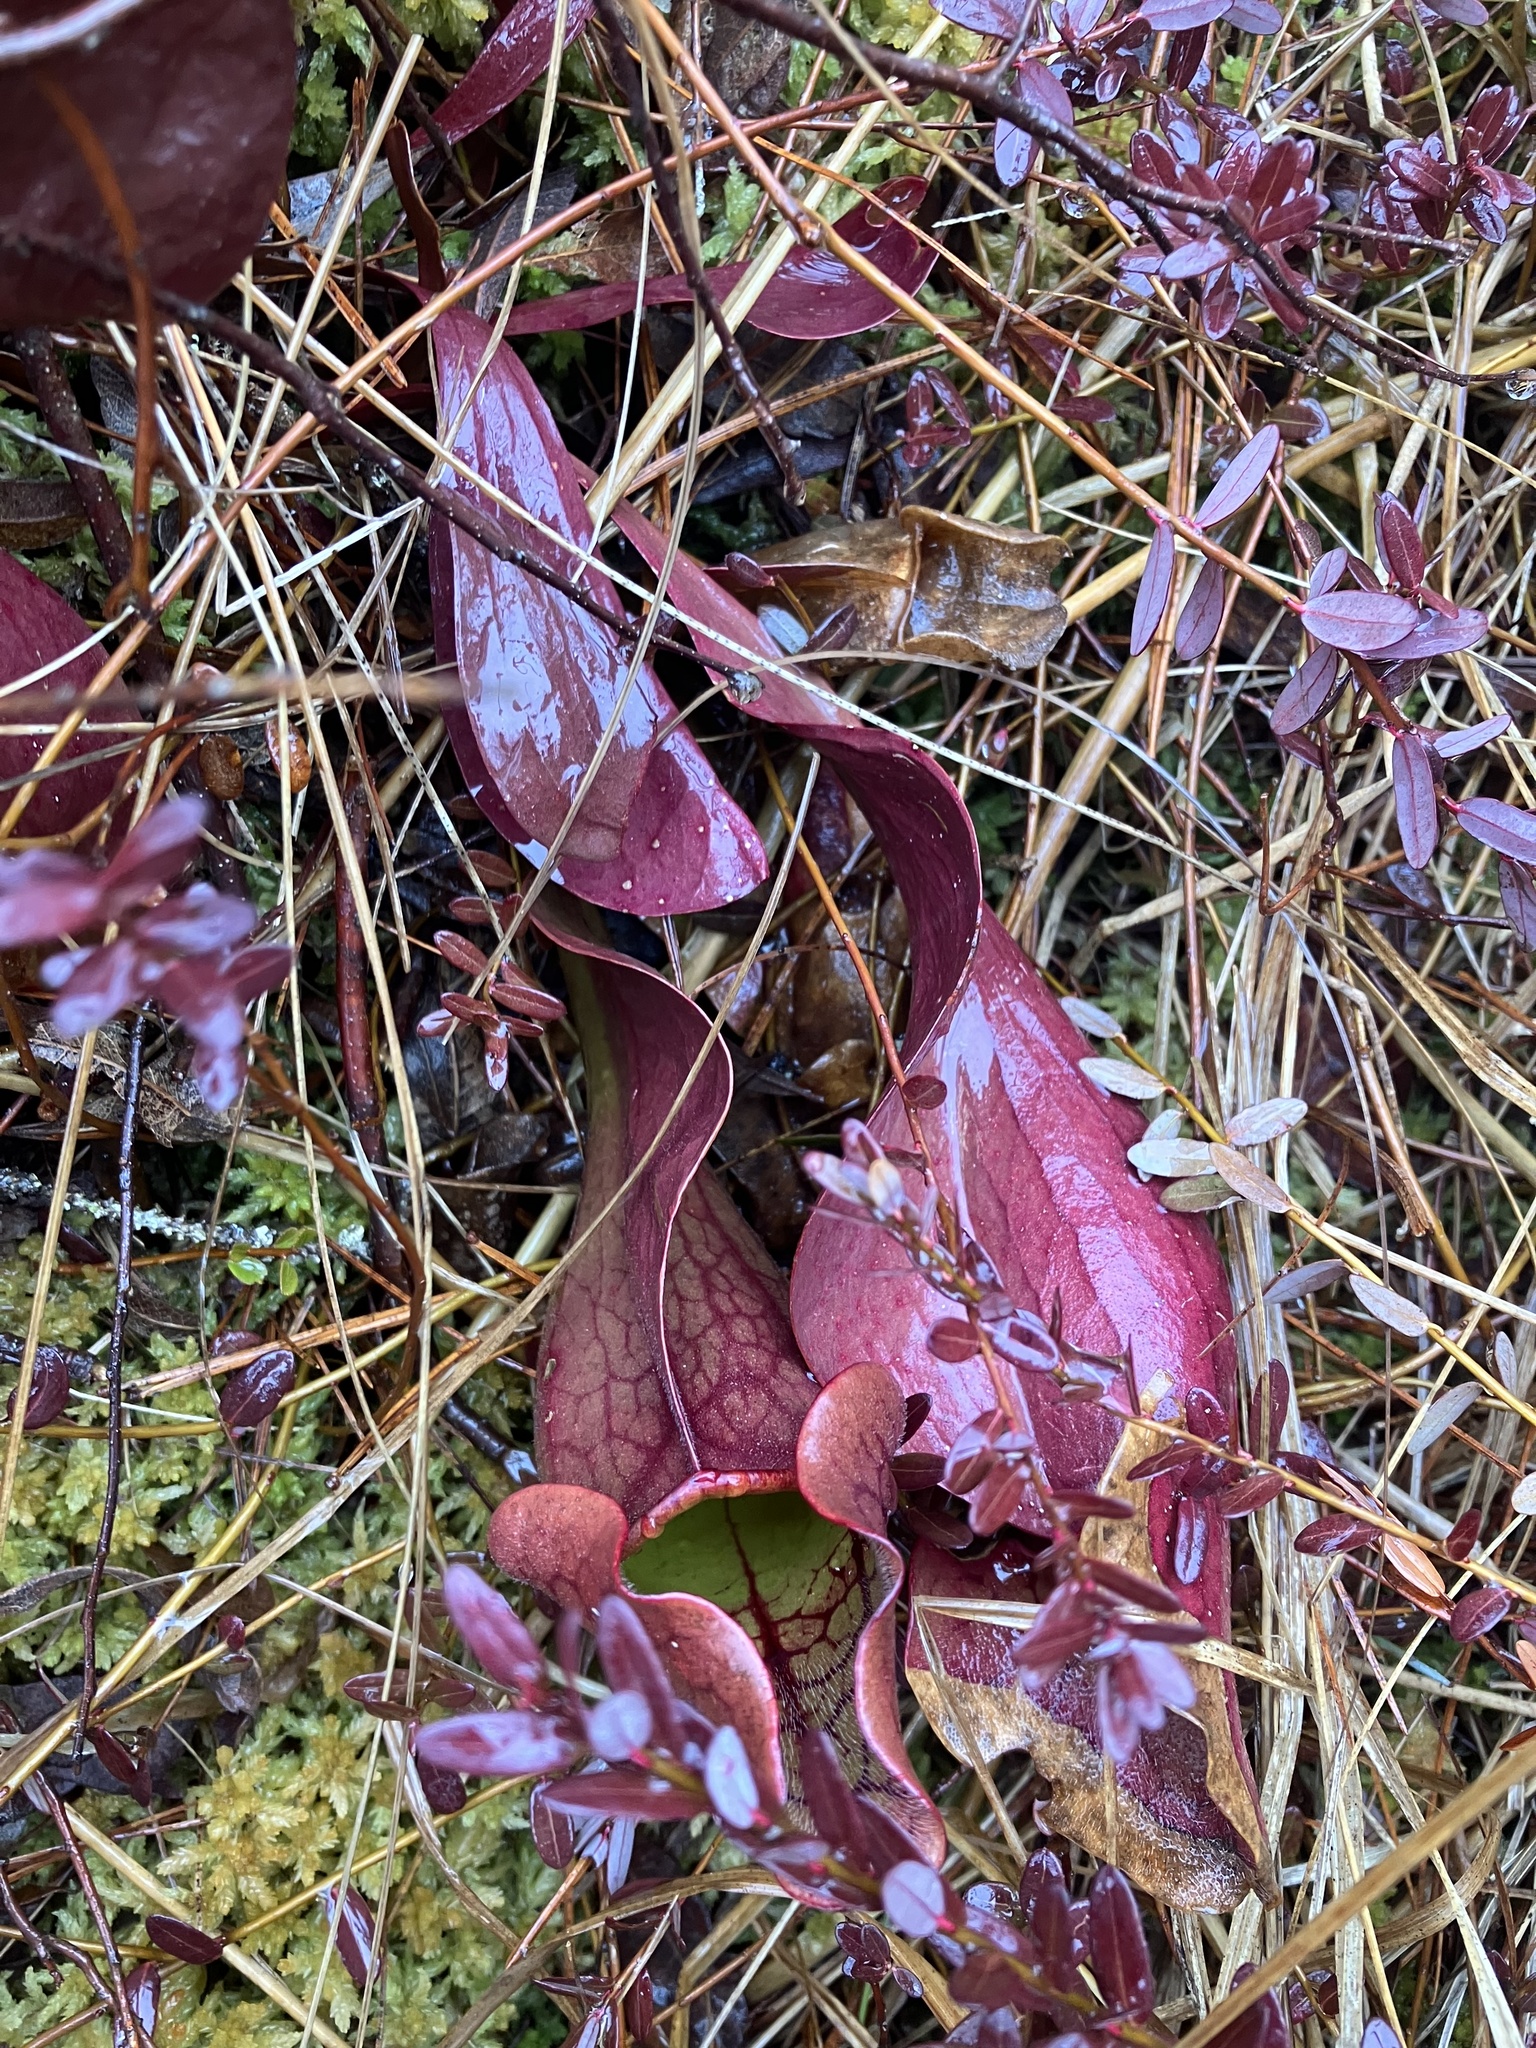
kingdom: Plantae
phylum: Tracheophyta
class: Magnoliopsida
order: Ericales
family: Sarraceniaceae
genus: Sarracenia
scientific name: Sarracenia purpurea
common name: Pitcherplant
